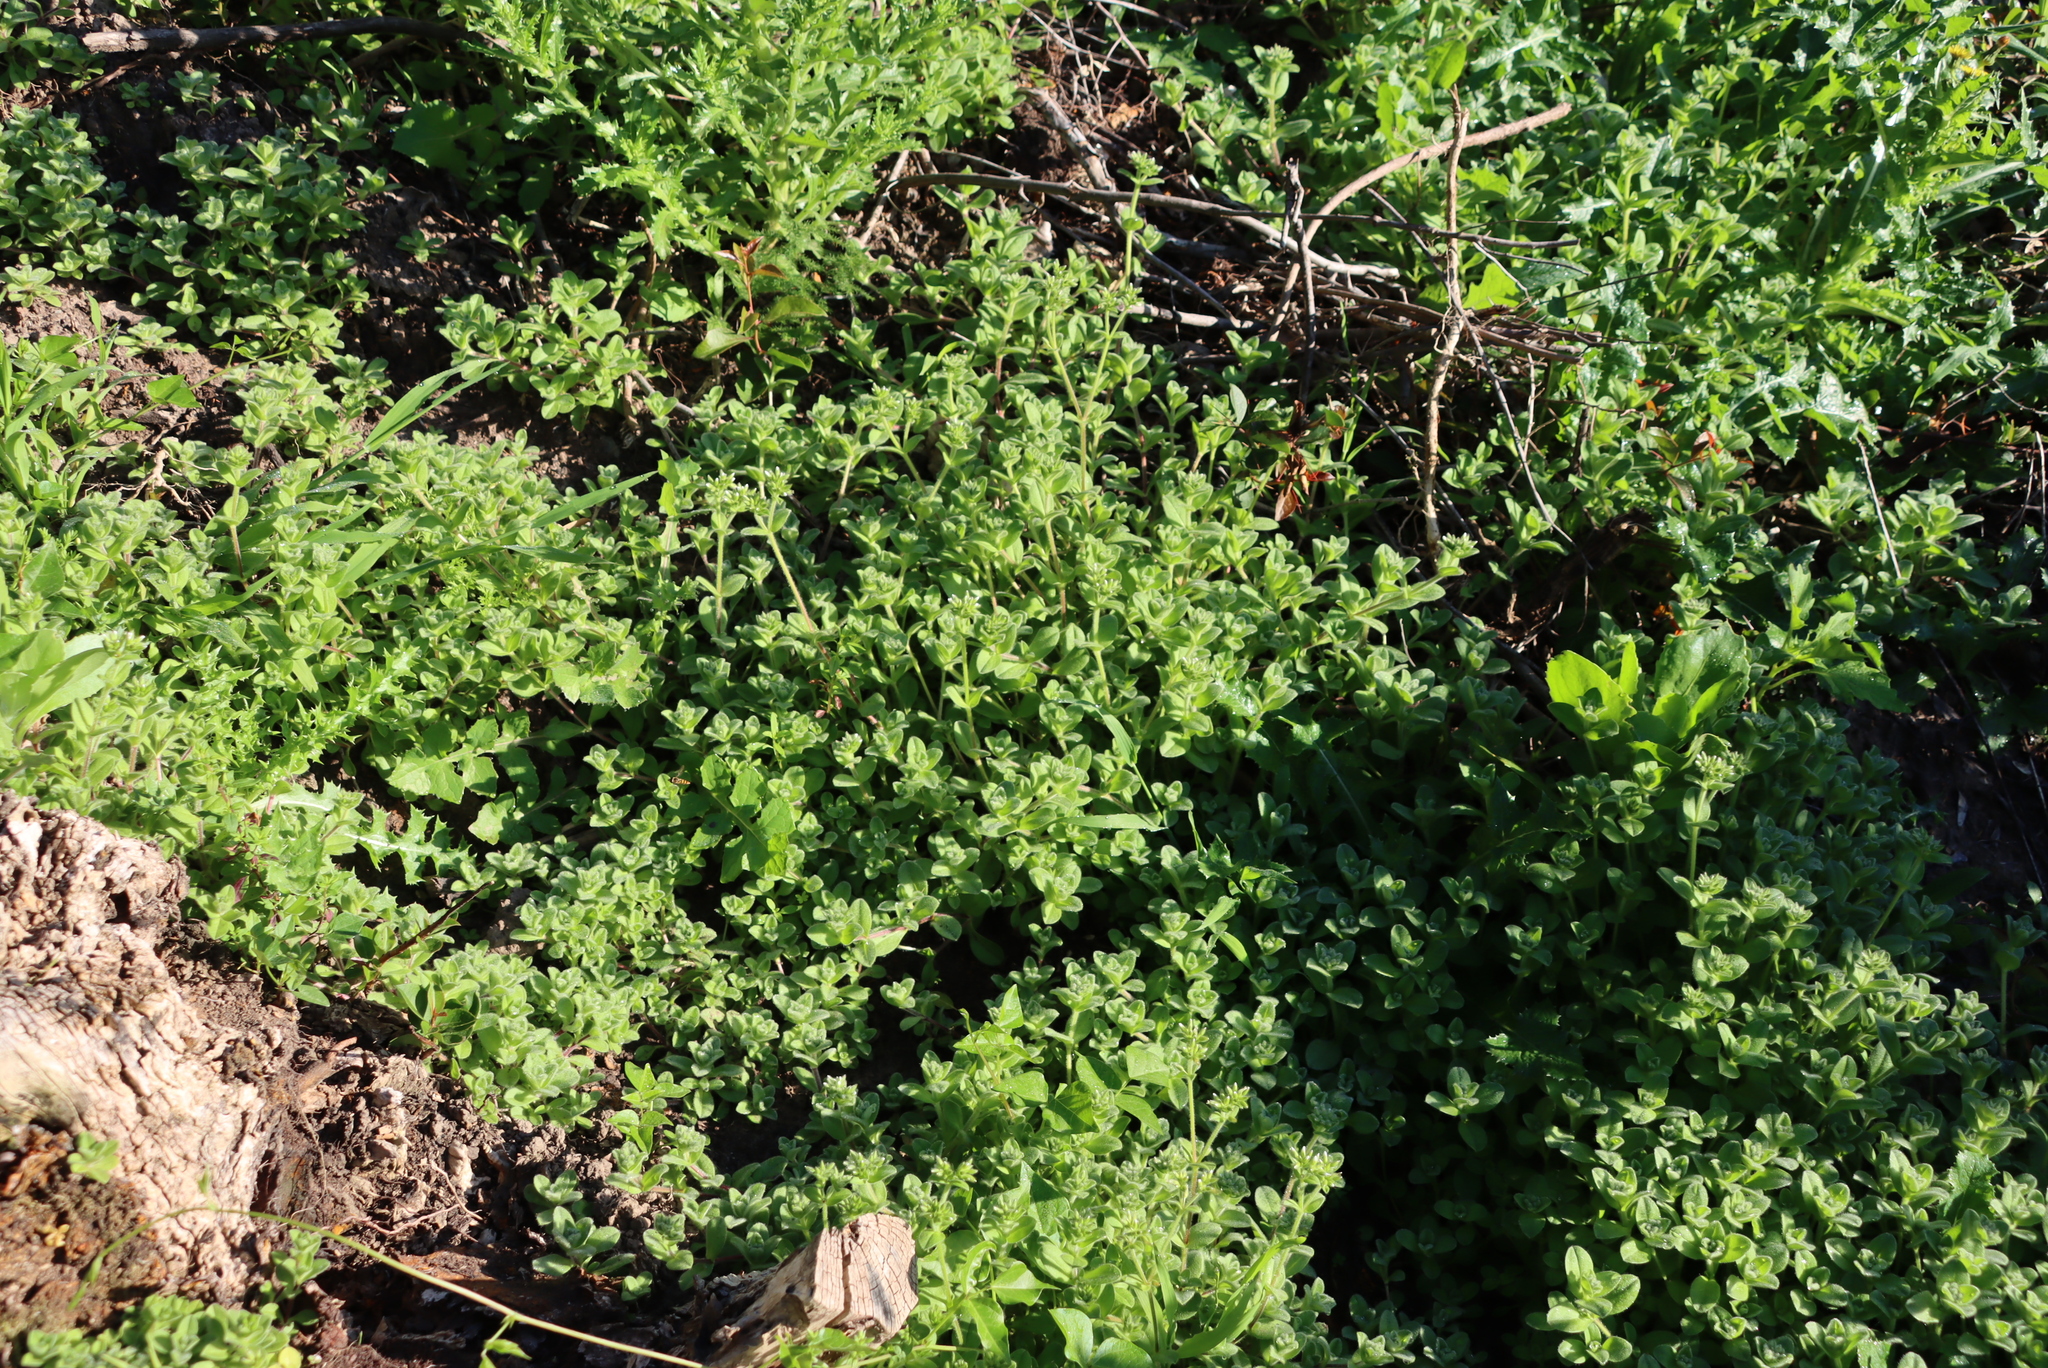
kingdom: Plantae
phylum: Tracheophyta
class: Magnoliopsida
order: Caryophyllales
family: Caryophyllaceae
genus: Cerastium
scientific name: Cerastium glomeratum
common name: Sticky chickweed
